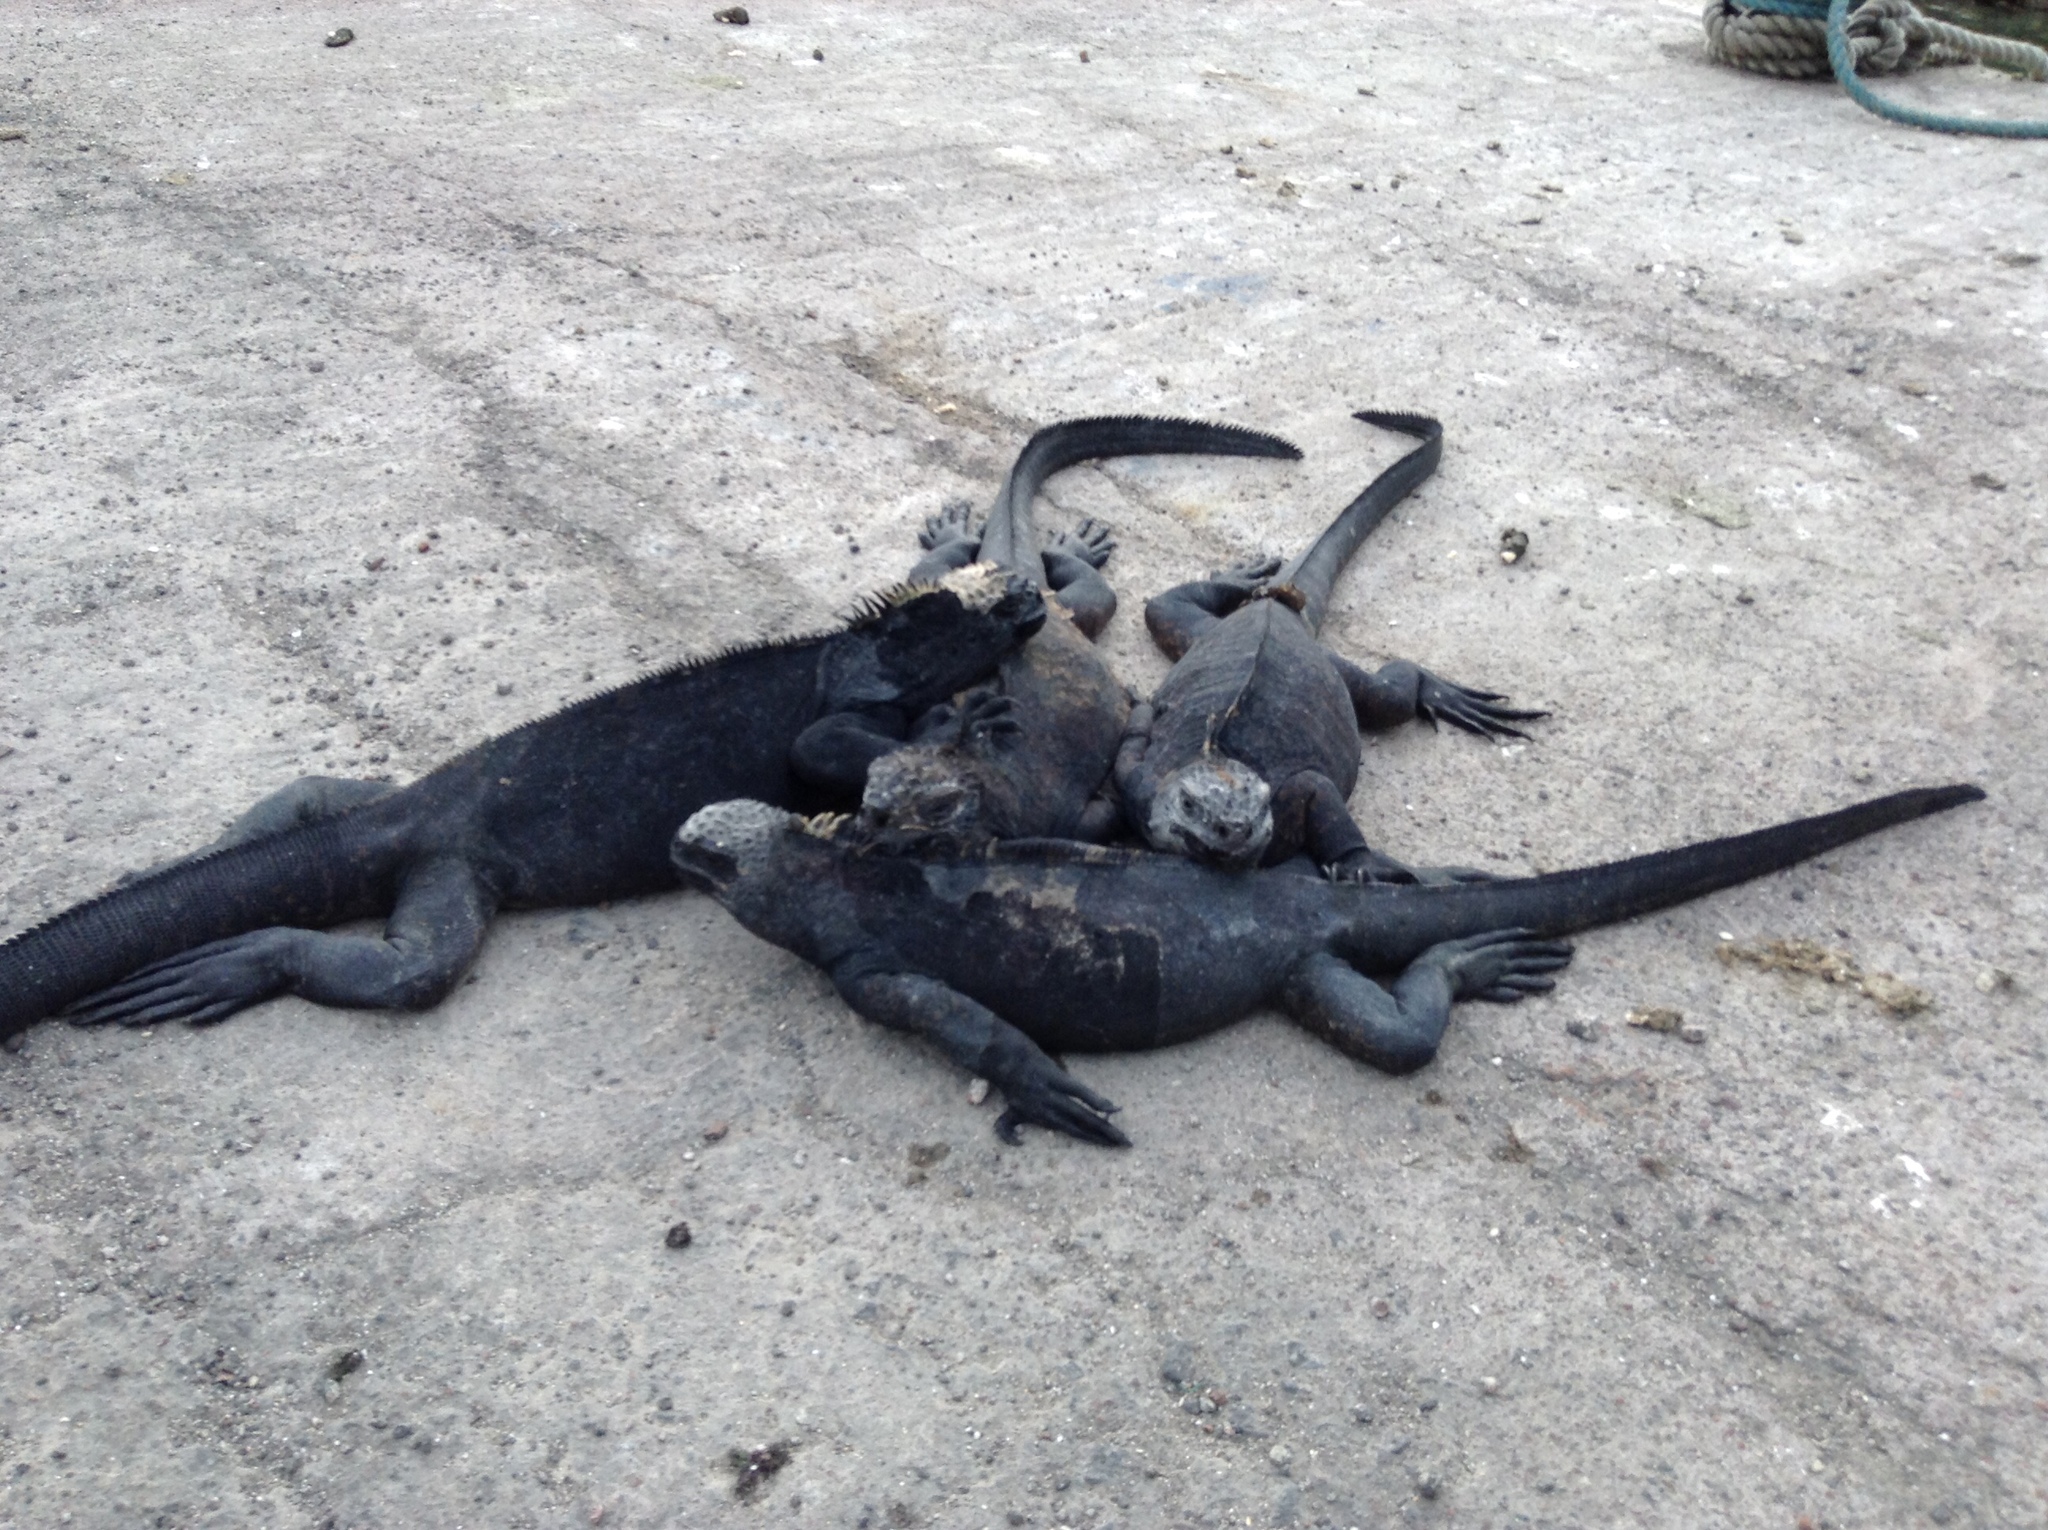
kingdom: Animalia
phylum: Chordata
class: Squamata
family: Iguanidae
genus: Amblyrhynchus
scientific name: Amblyrhynchus cristatus
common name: Marine iguana
